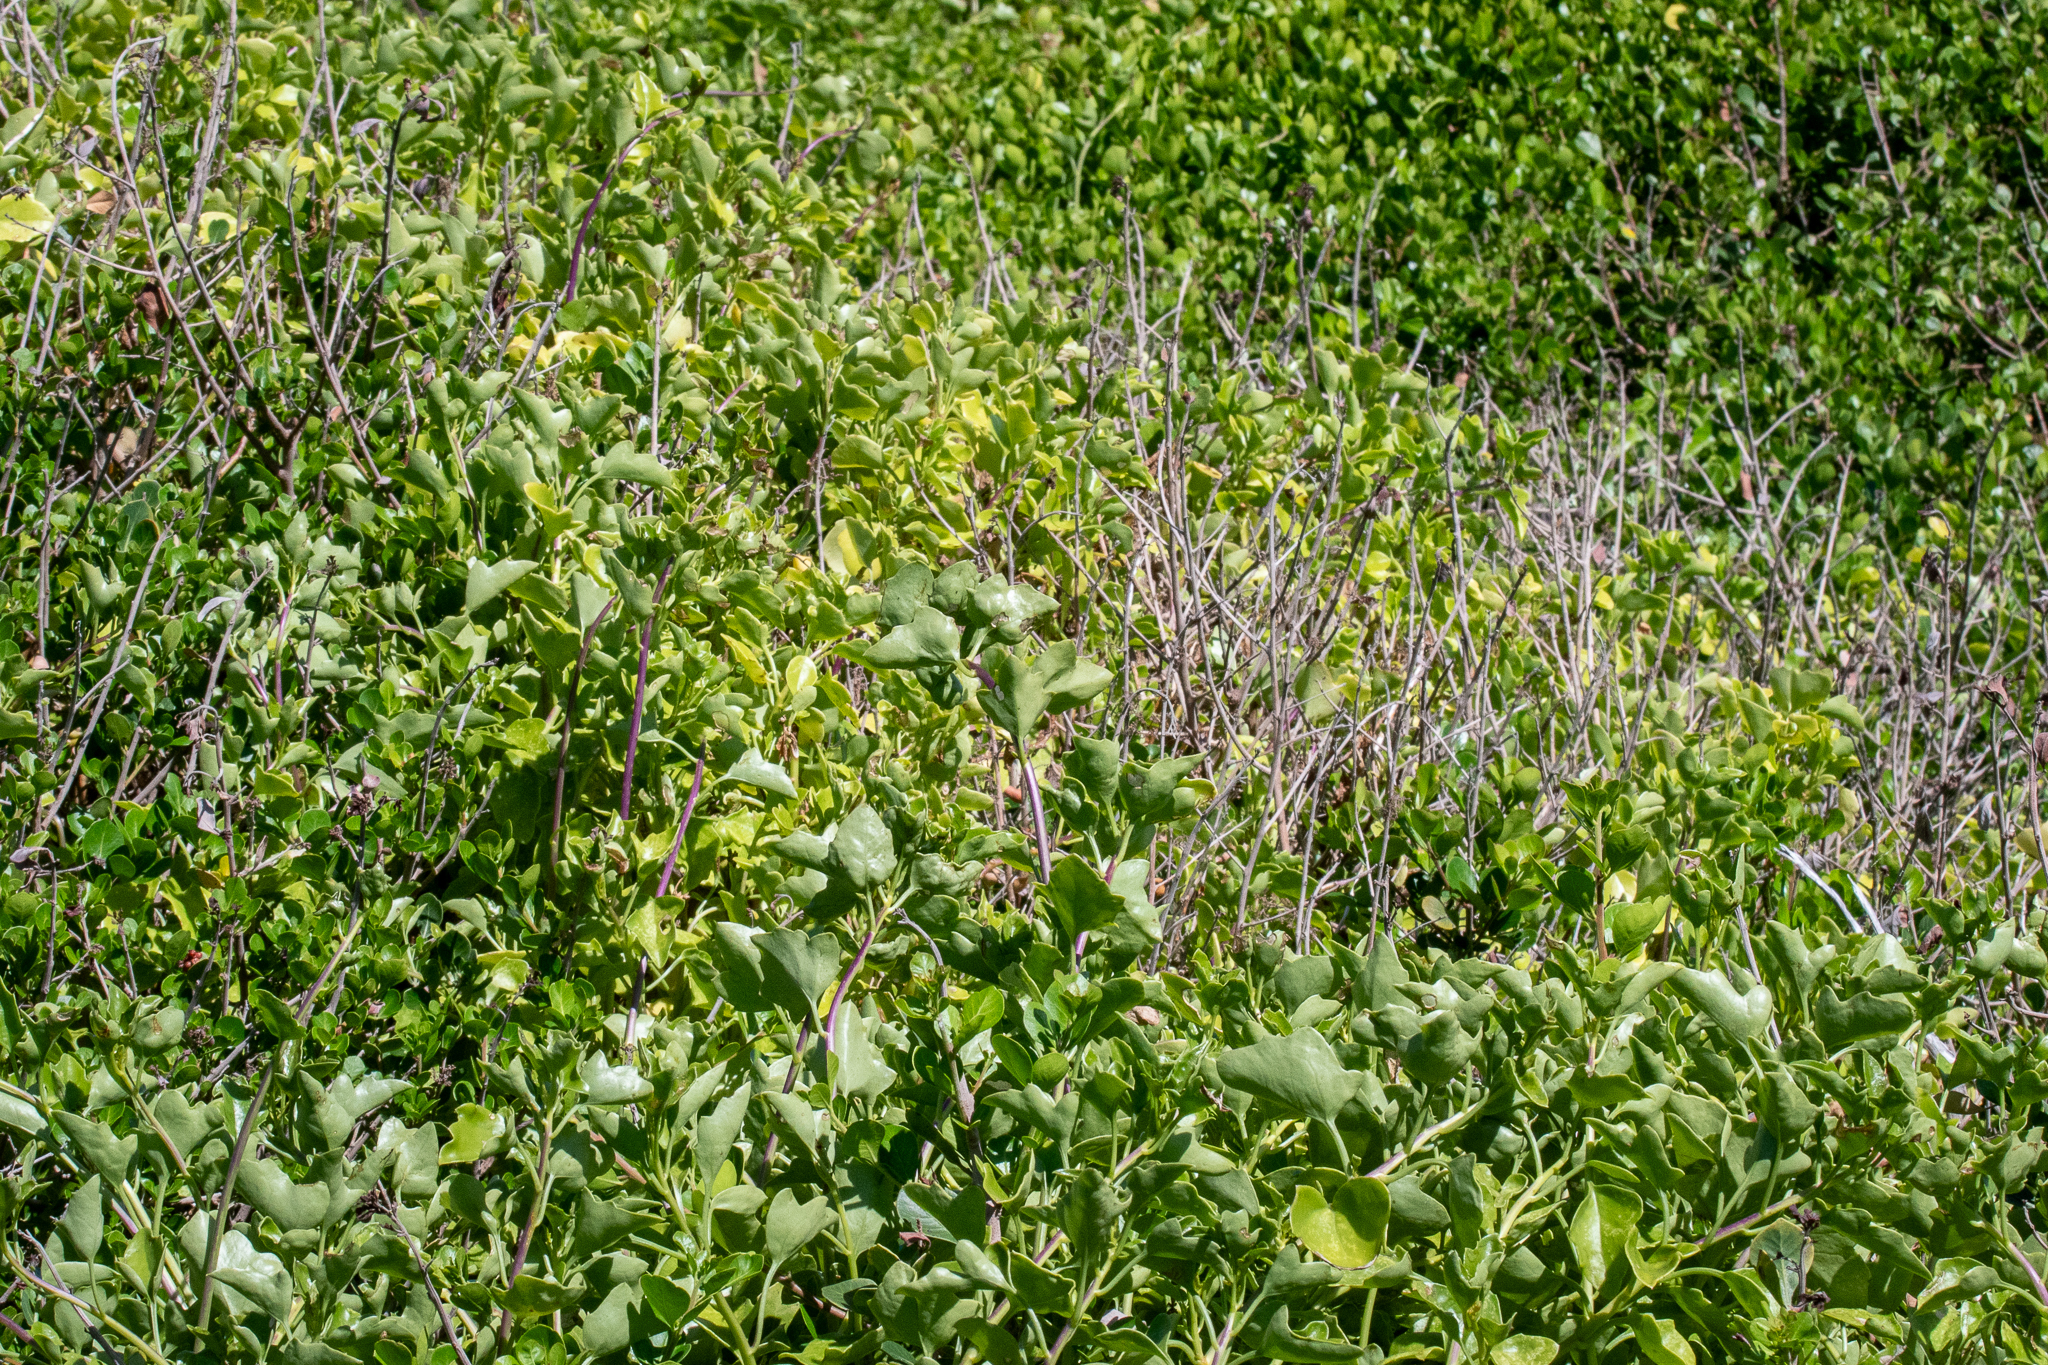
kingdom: Plantae
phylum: Tracheophyta
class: Magnoliopsida
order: Asterales
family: Asteraceae
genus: Senecio
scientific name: Senecio angulatus
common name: Climbing groundsel
